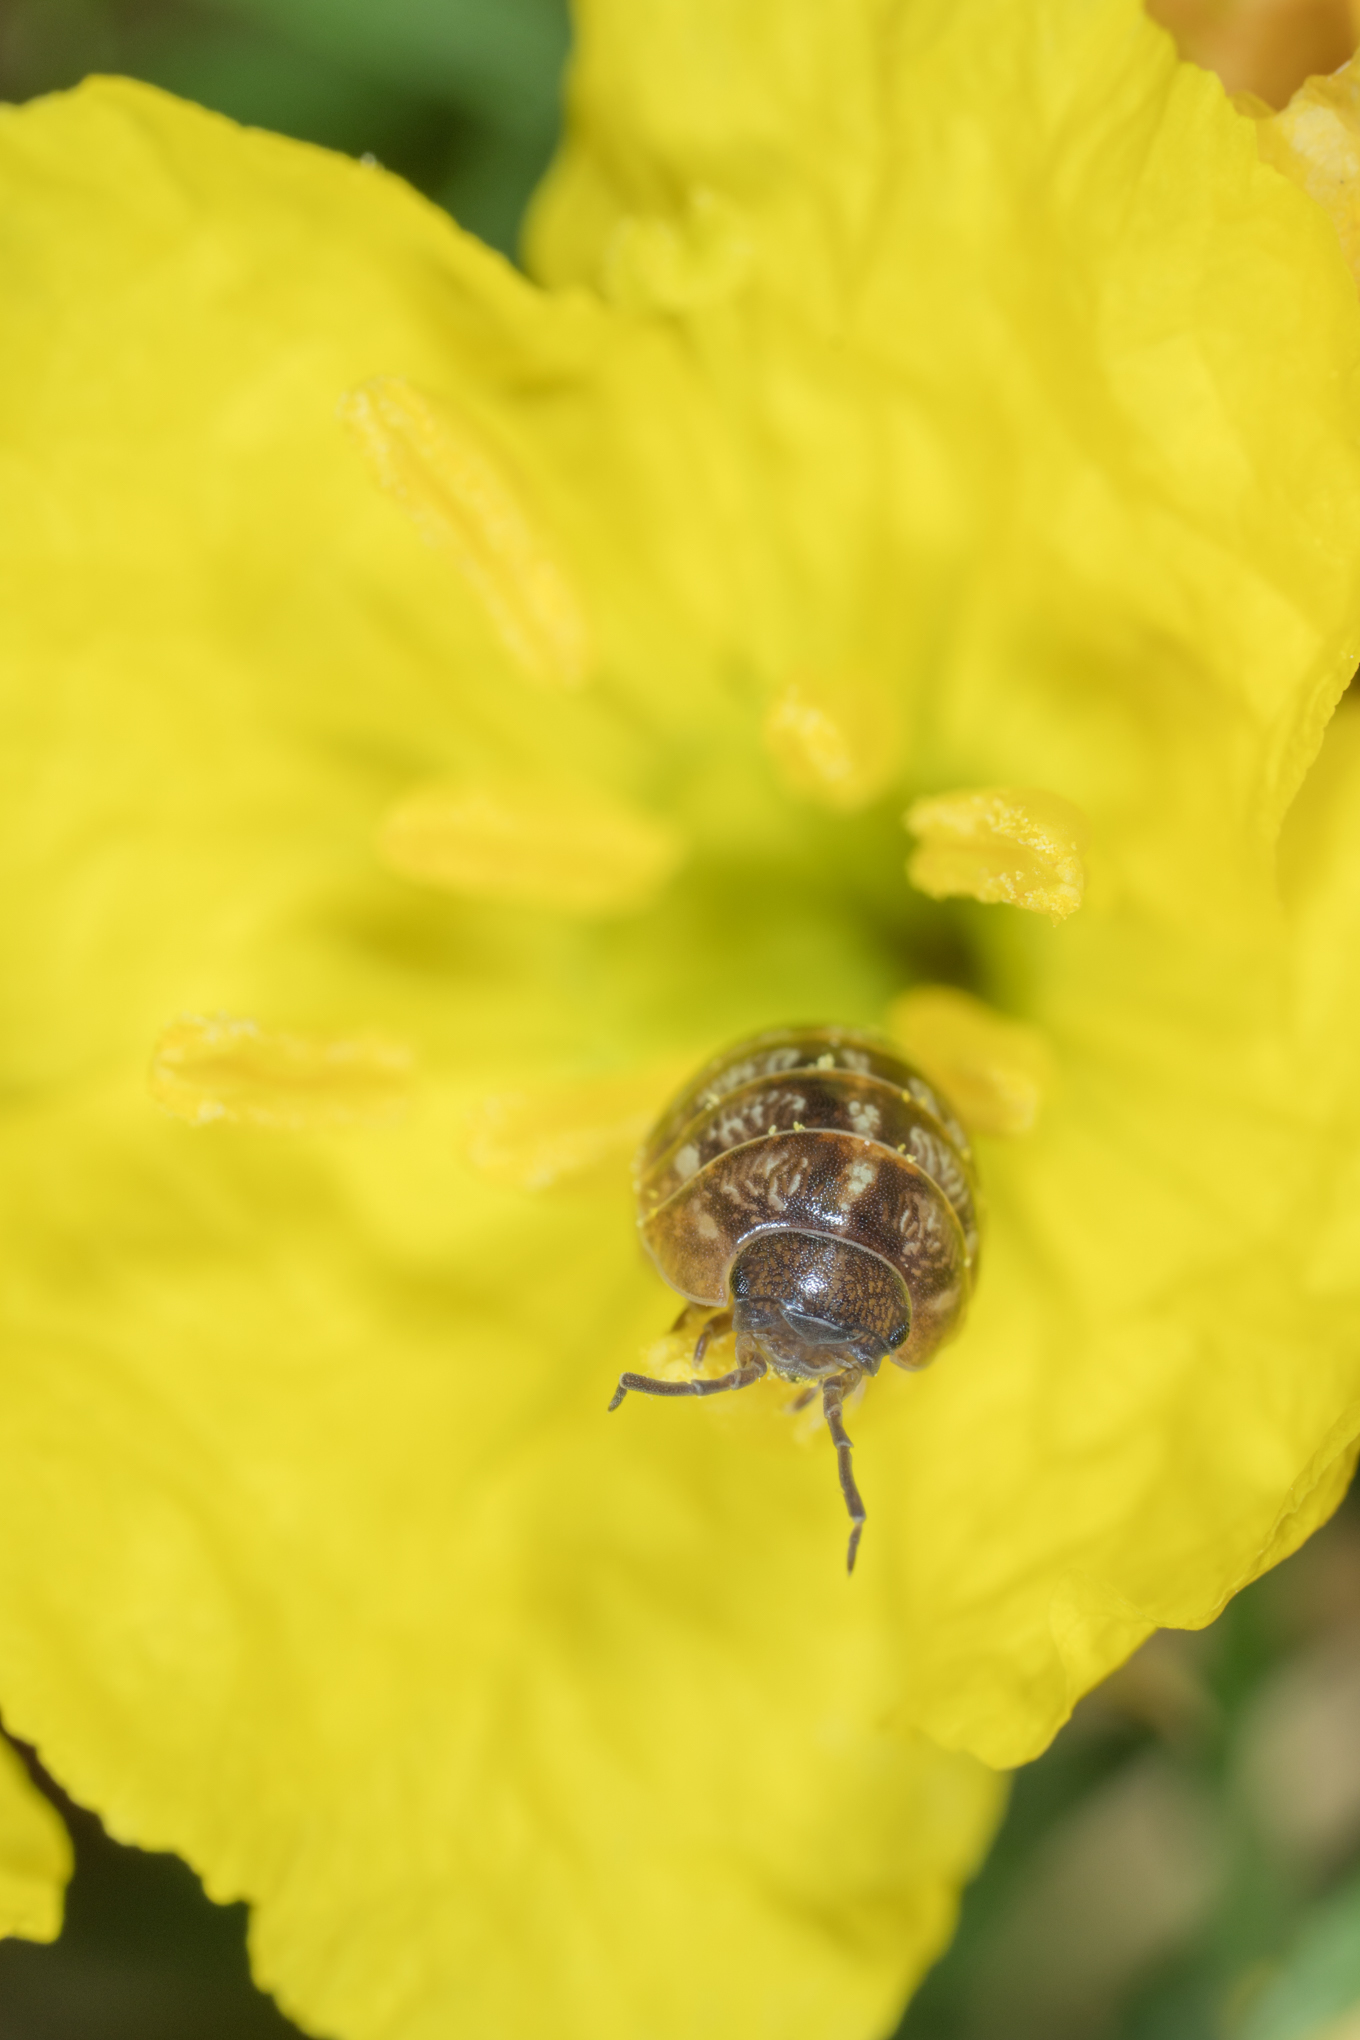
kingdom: Animalia
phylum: Arthropoda
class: Malacostraca
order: Isopoda
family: Armadillidiidae
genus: Armadillidium
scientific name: Armadillidium vulgare
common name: Common pill woodlouse
